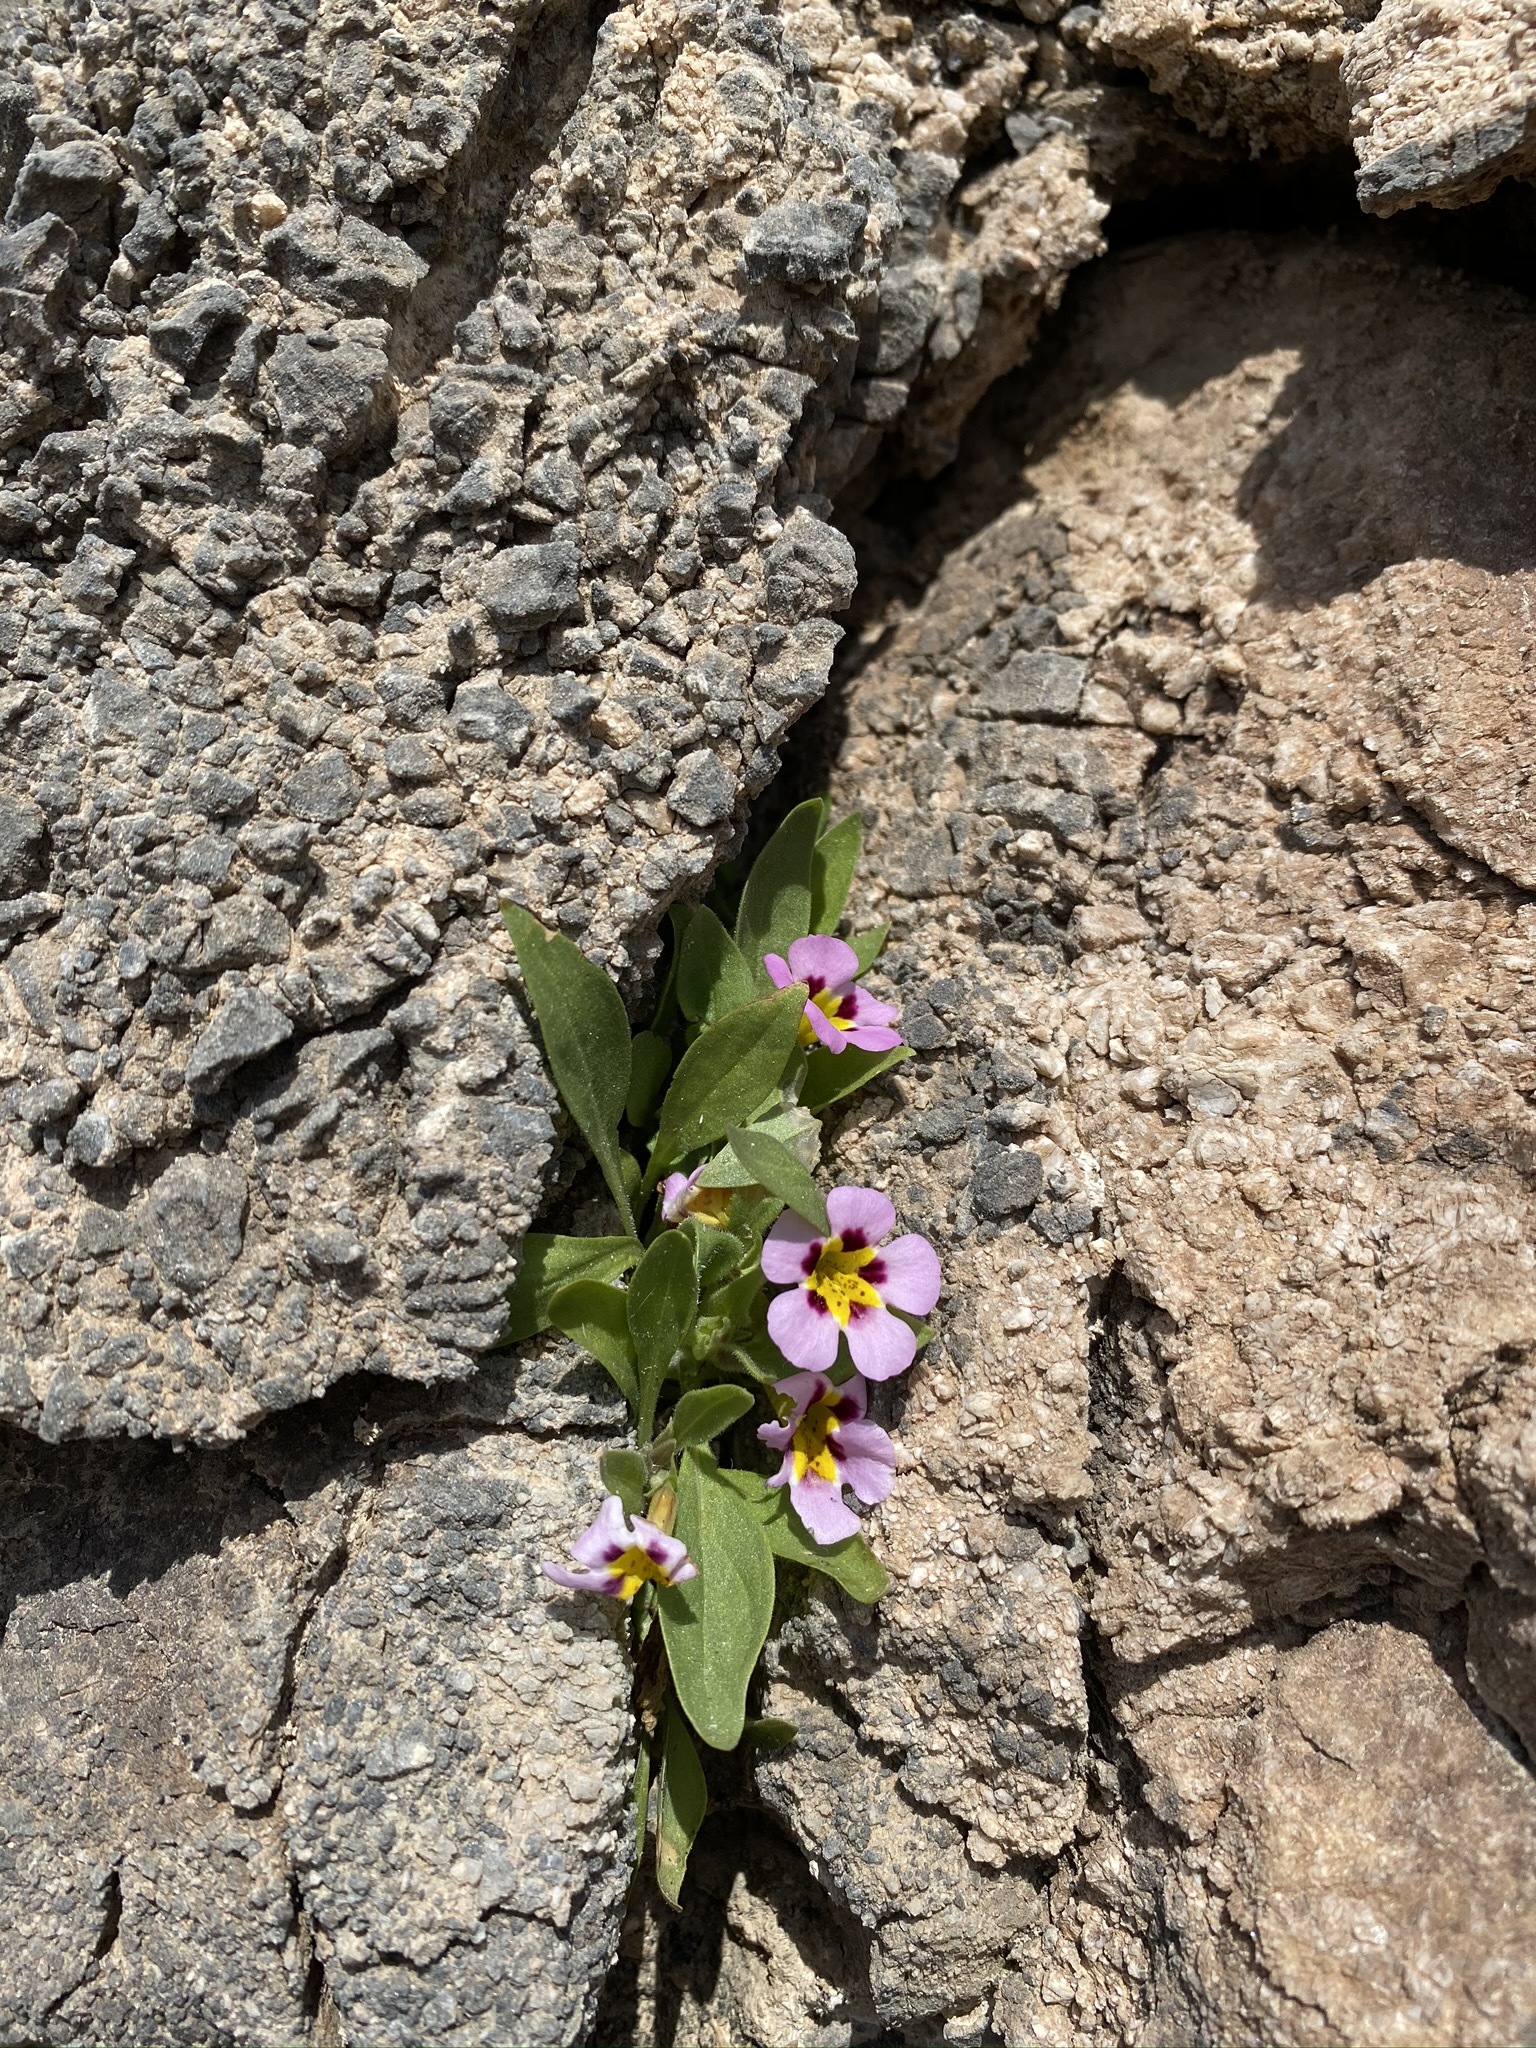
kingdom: Plantae
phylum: Tracheophyta
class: Magnoliopsida
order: Lamiales
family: Phrymaceae
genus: Diplacus
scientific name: Diplacus rupicola
